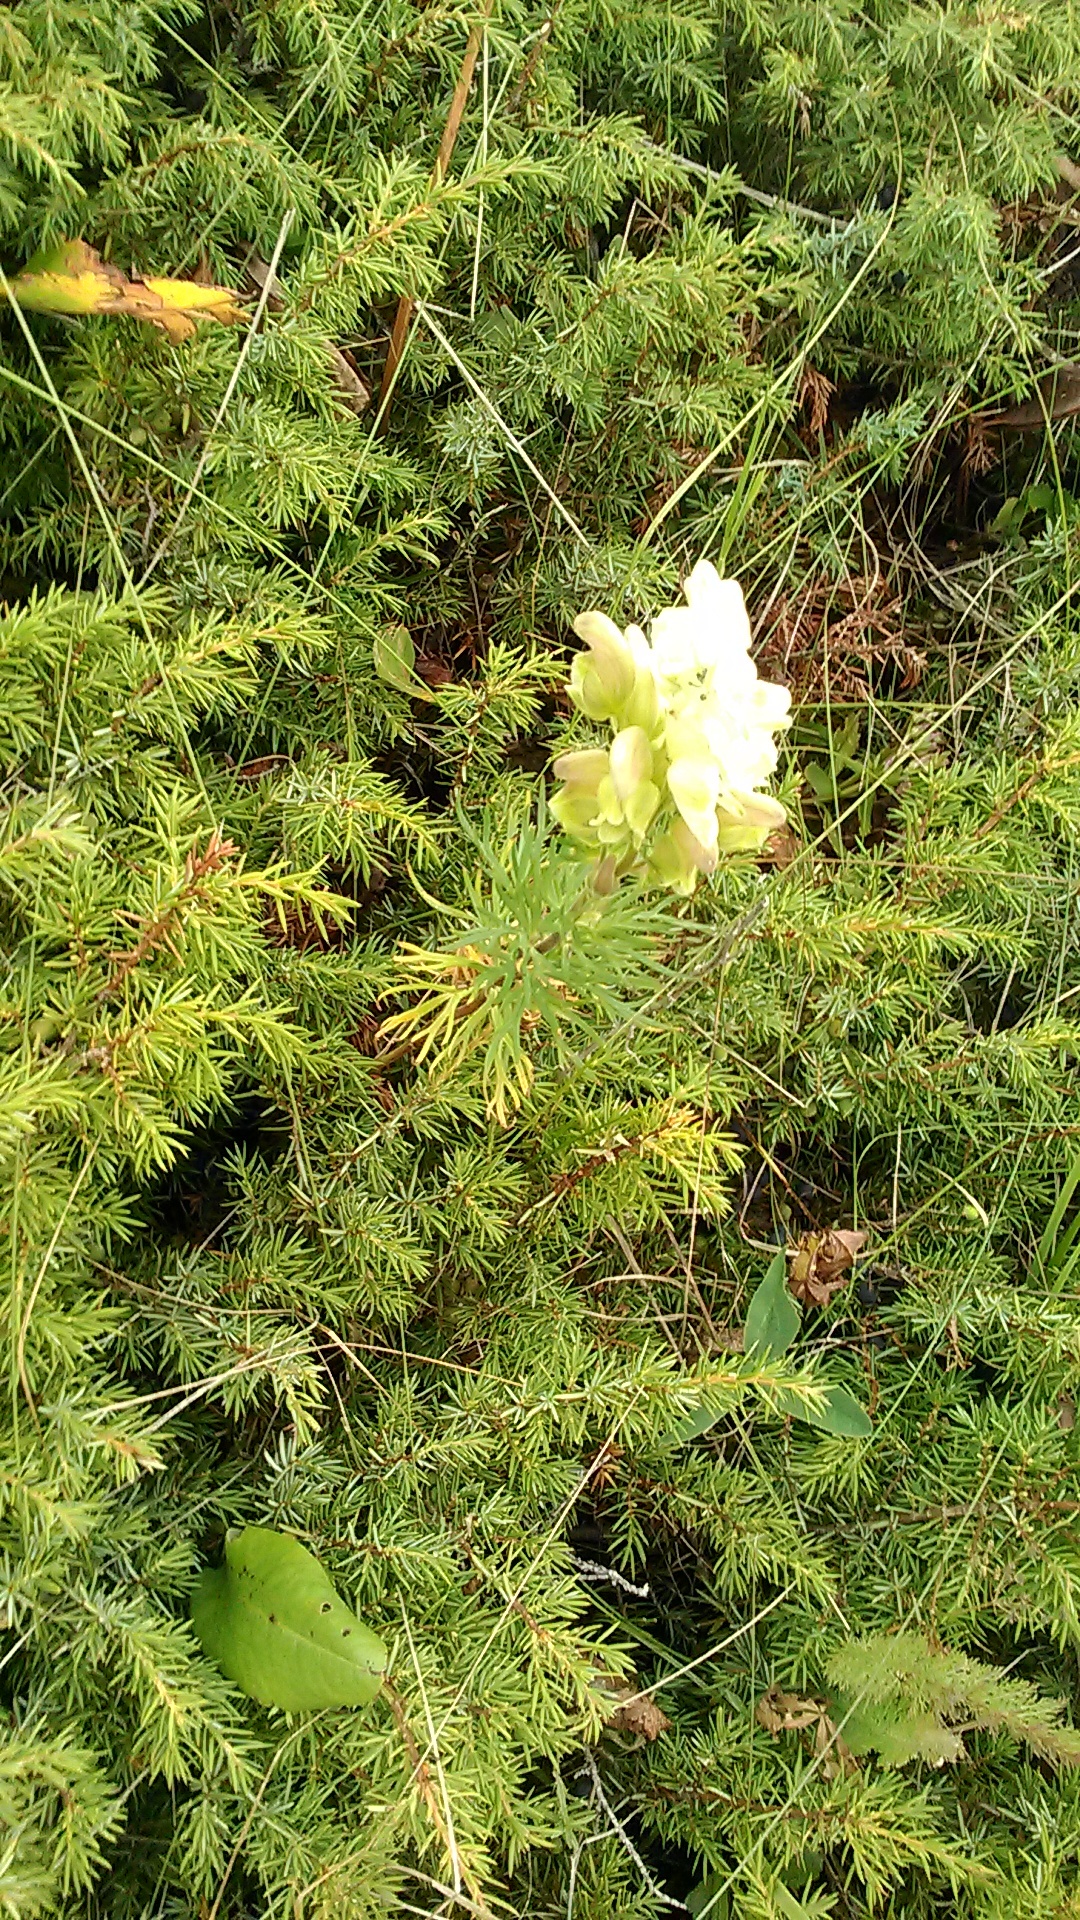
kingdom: Plantae
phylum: Tracheophyta
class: Magnoliopsida
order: Ranunculales
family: Ranunculaceae
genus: Aconitum
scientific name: Aconitum anthora
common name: Yellow monkshood
